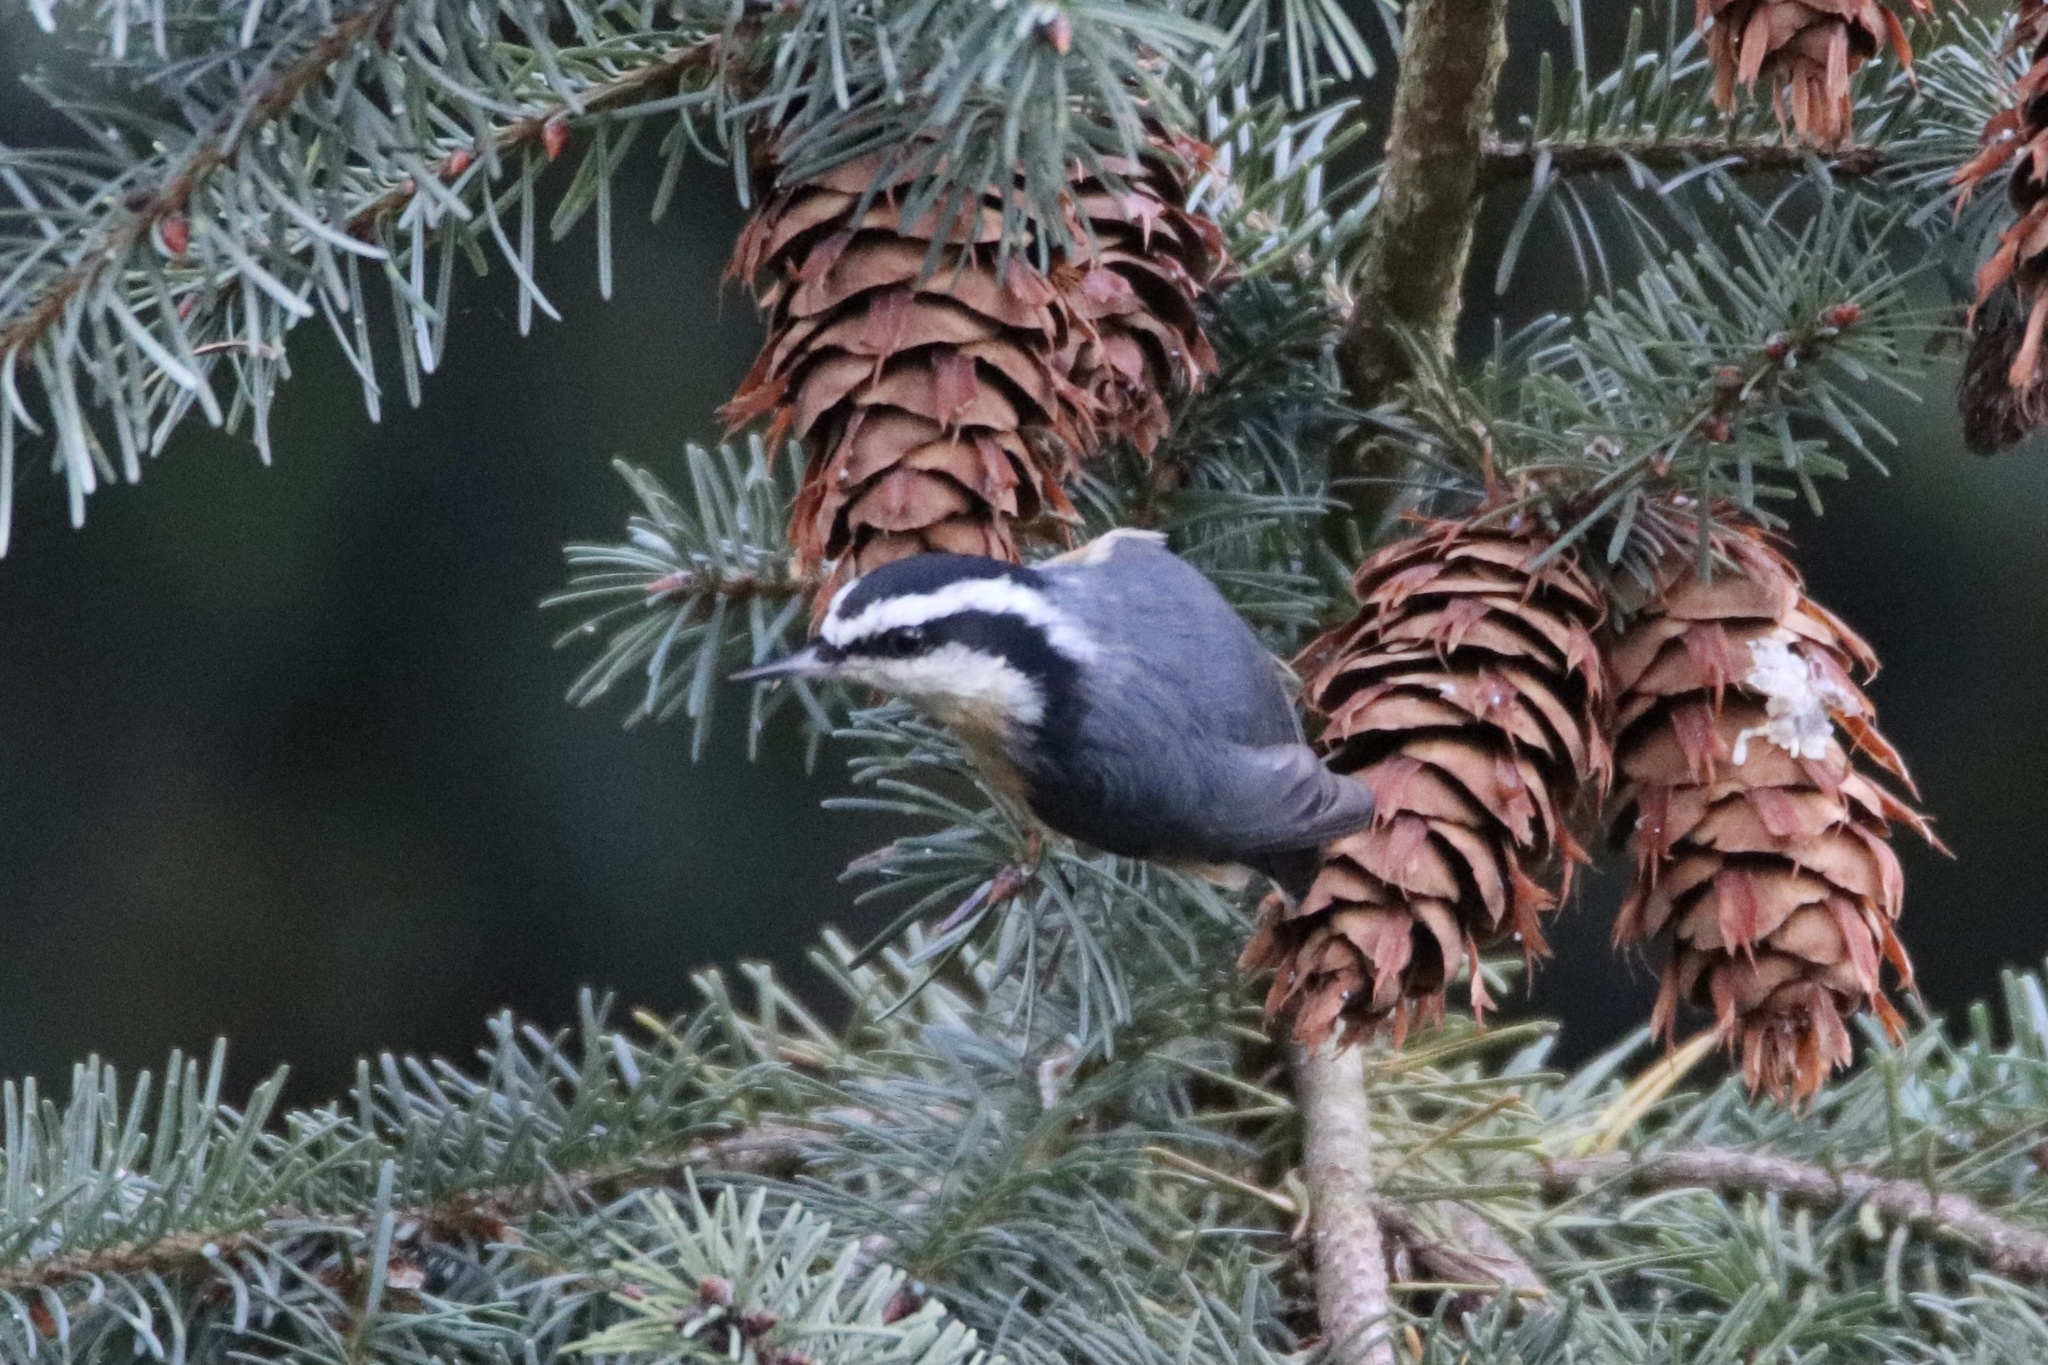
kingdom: Animalia
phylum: Chordata
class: Aves
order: Passeriformes
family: Sittidae
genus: Sitta
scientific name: Sitta canadensis
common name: Red-breasted nuthatch
